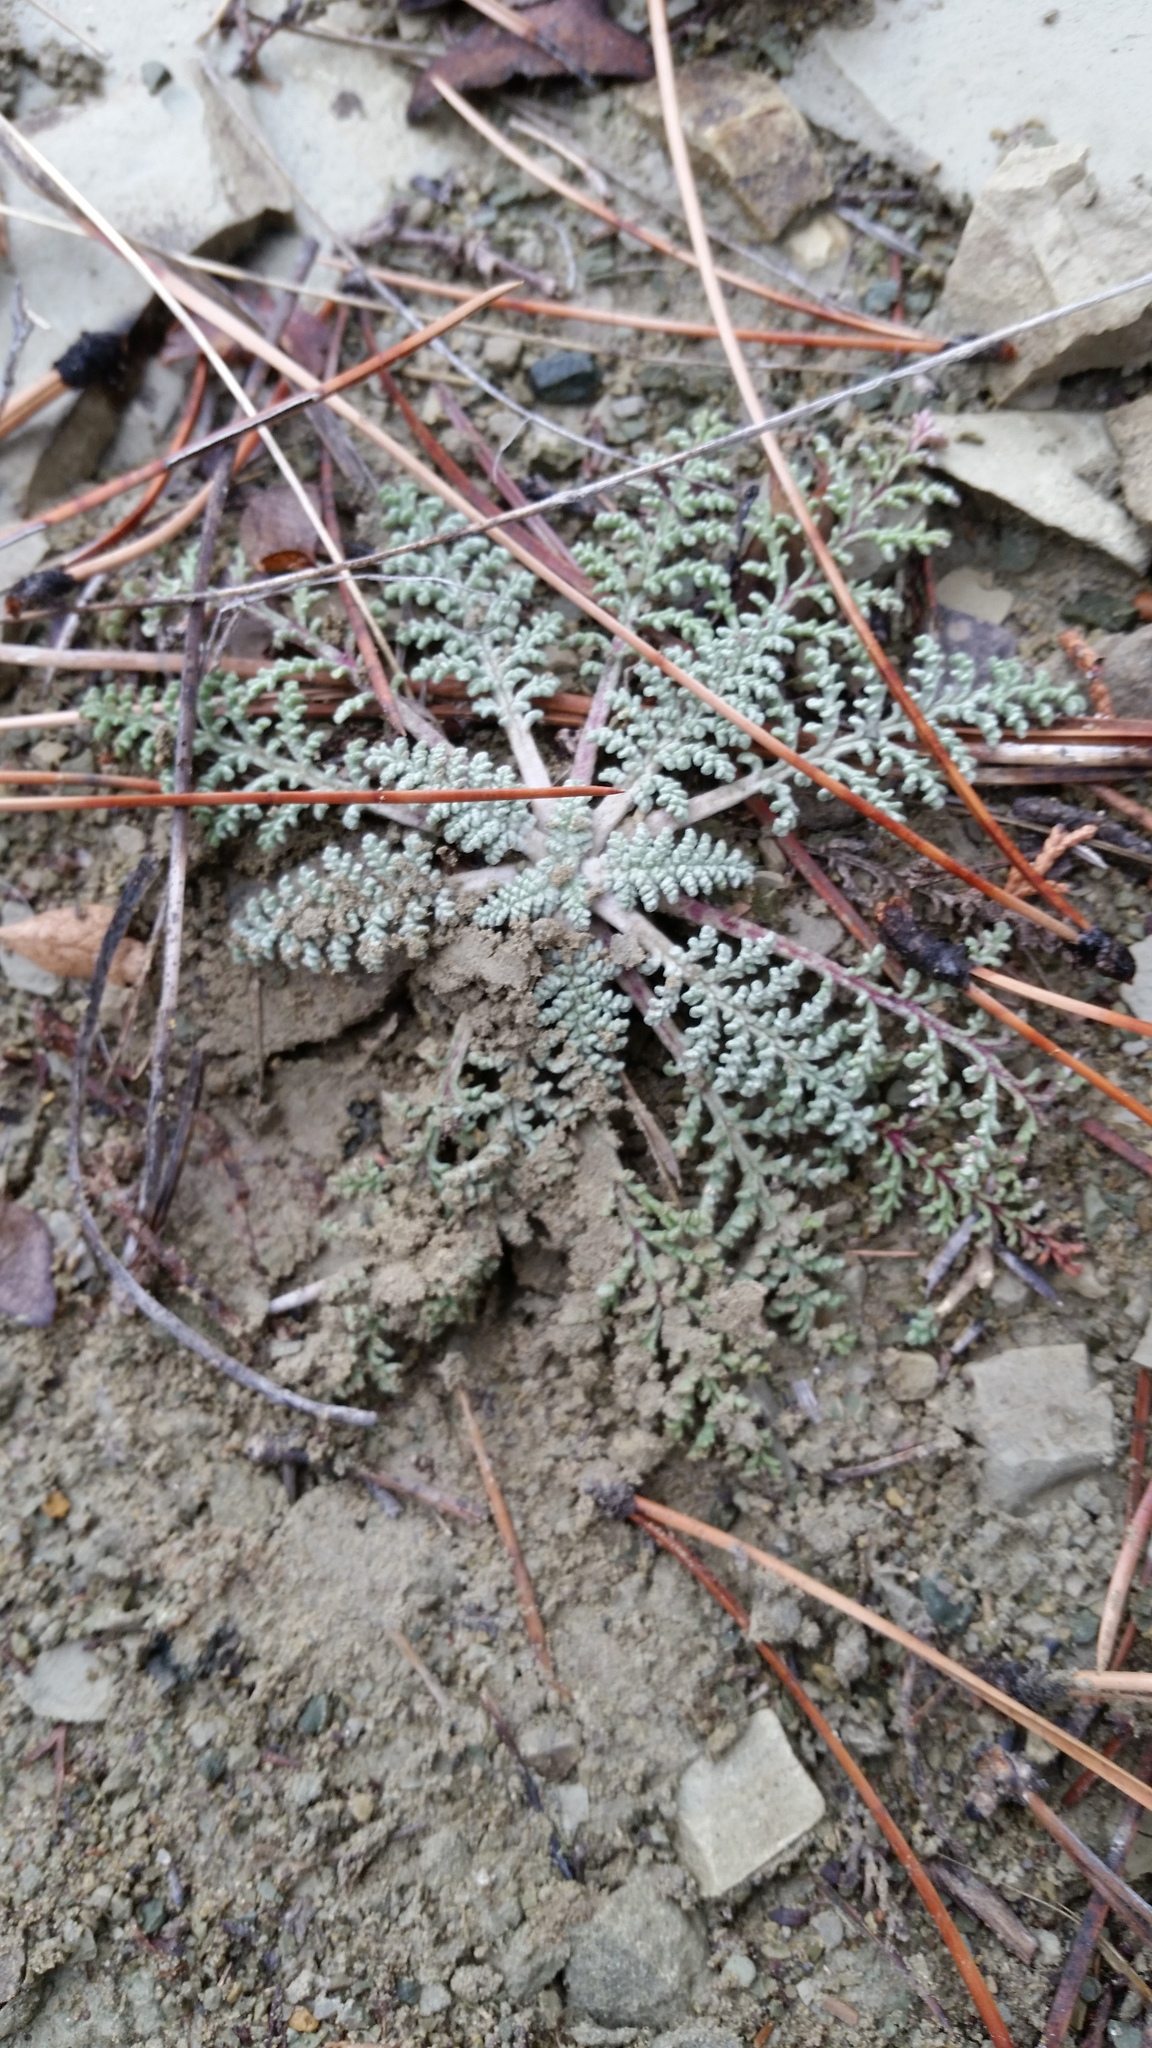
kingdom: Plantae
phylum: Tracheophyta
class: Magnoliopsida
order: Asterales
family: Asteraceae
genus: Chaenactis
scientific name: Chaenactis douglasii
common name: Hoary pincushion
